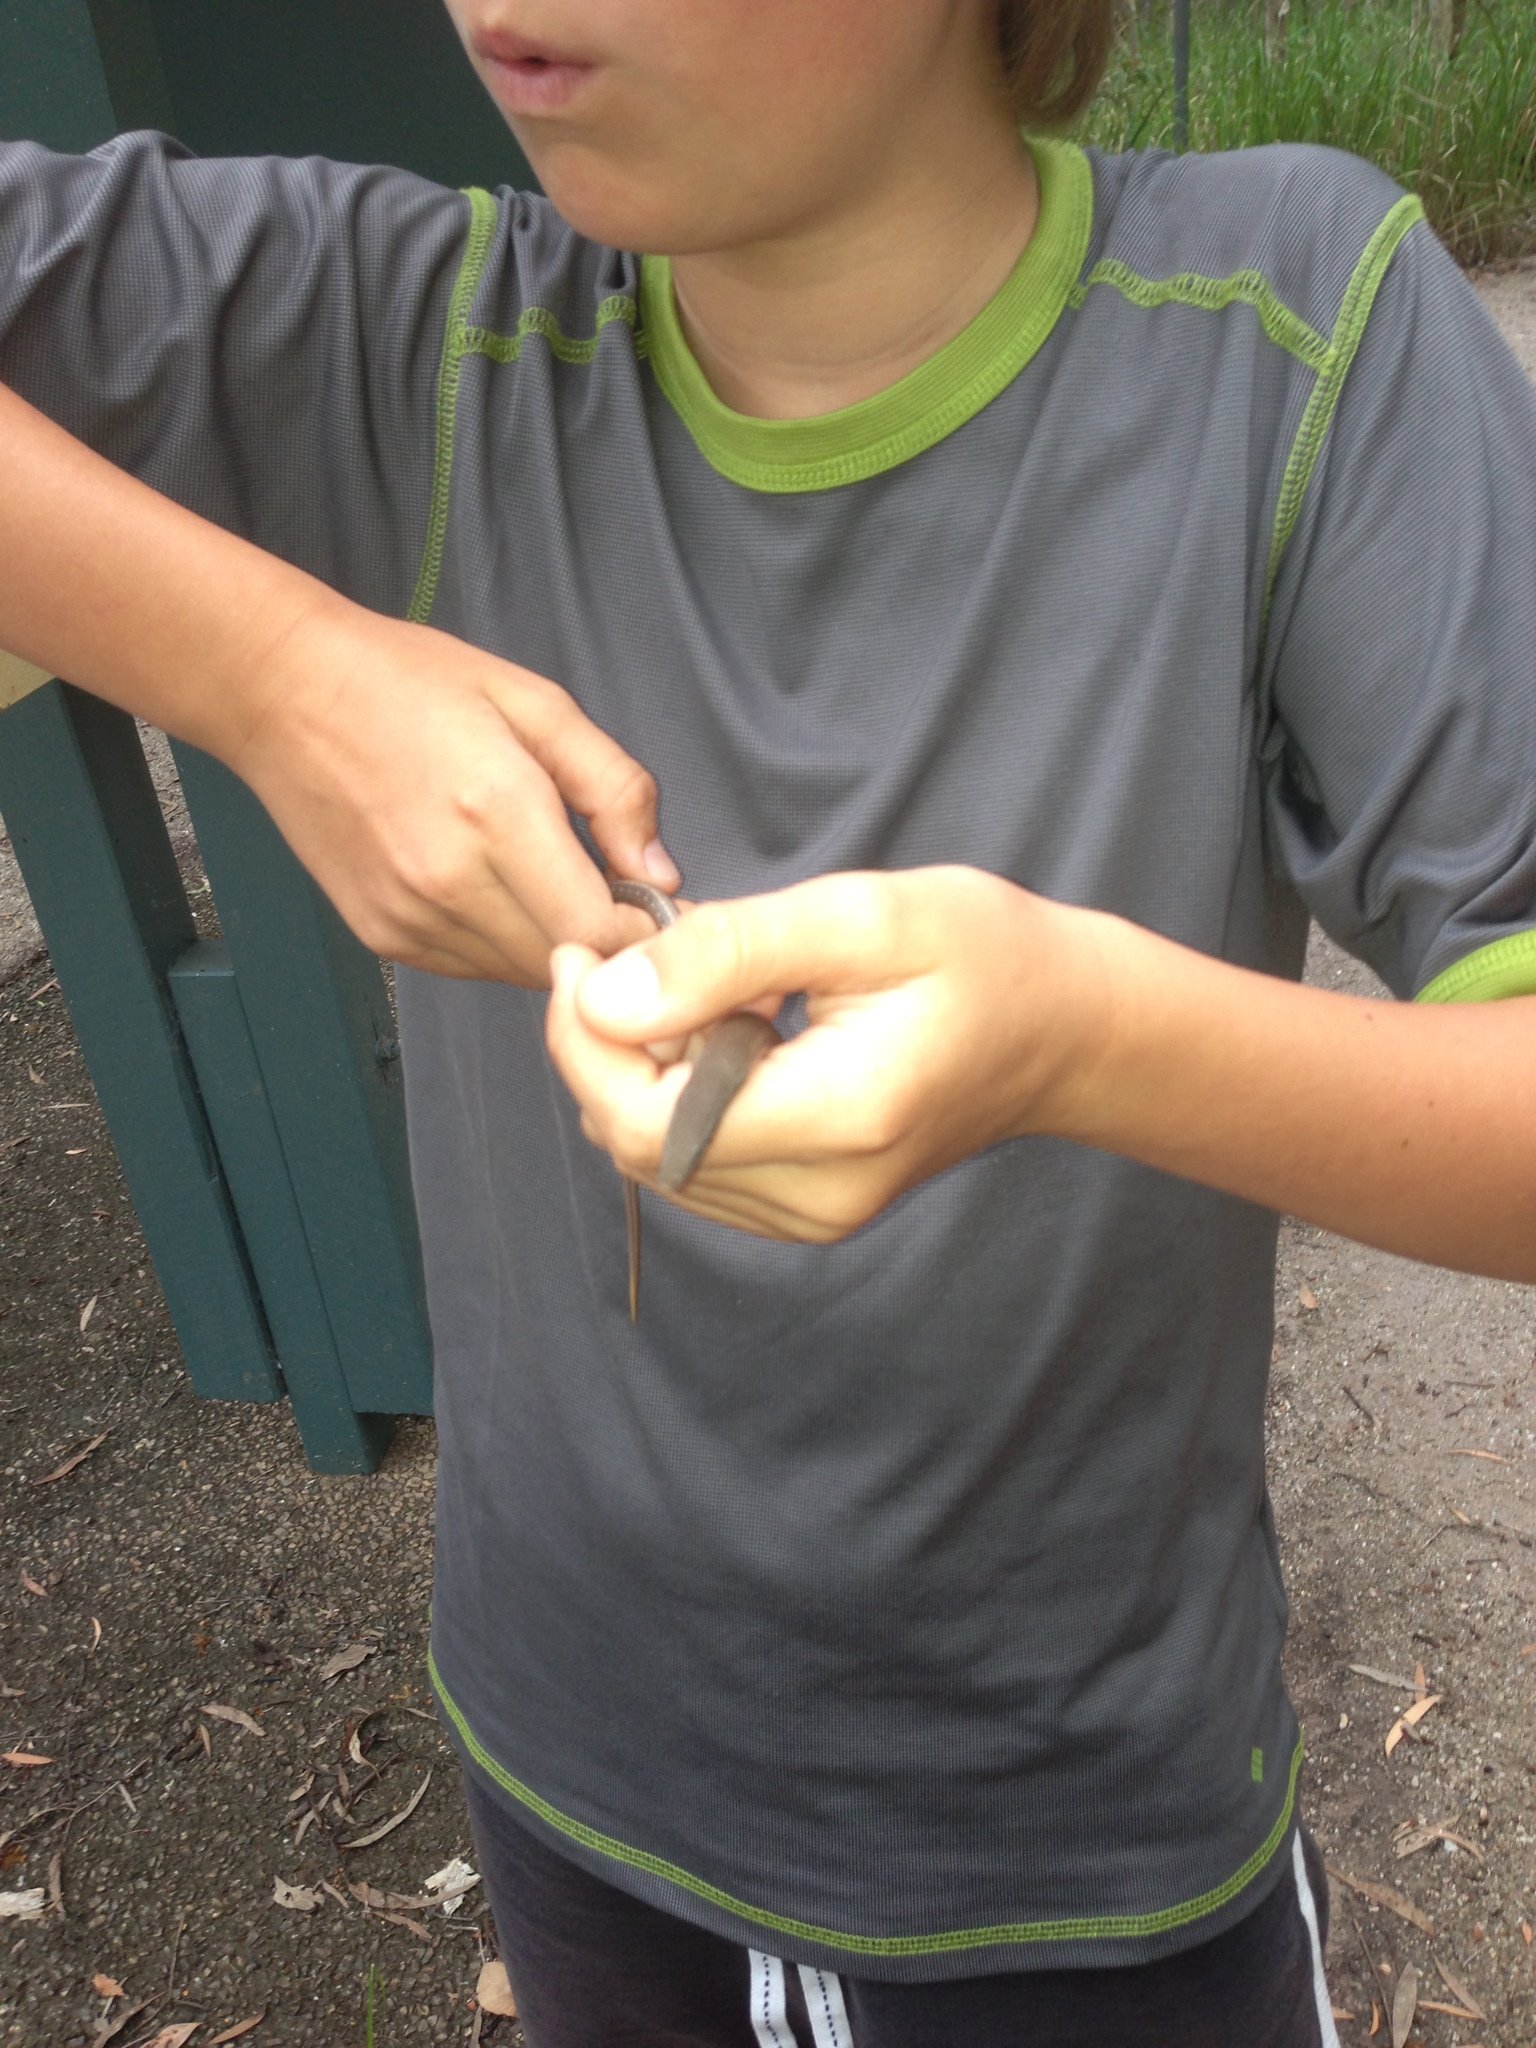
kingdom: Animalia
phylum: Chordata
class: Squamata
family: Pygopodidae
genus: Lialis
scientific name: Lialis burtonis
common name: Burton's legless lizard
